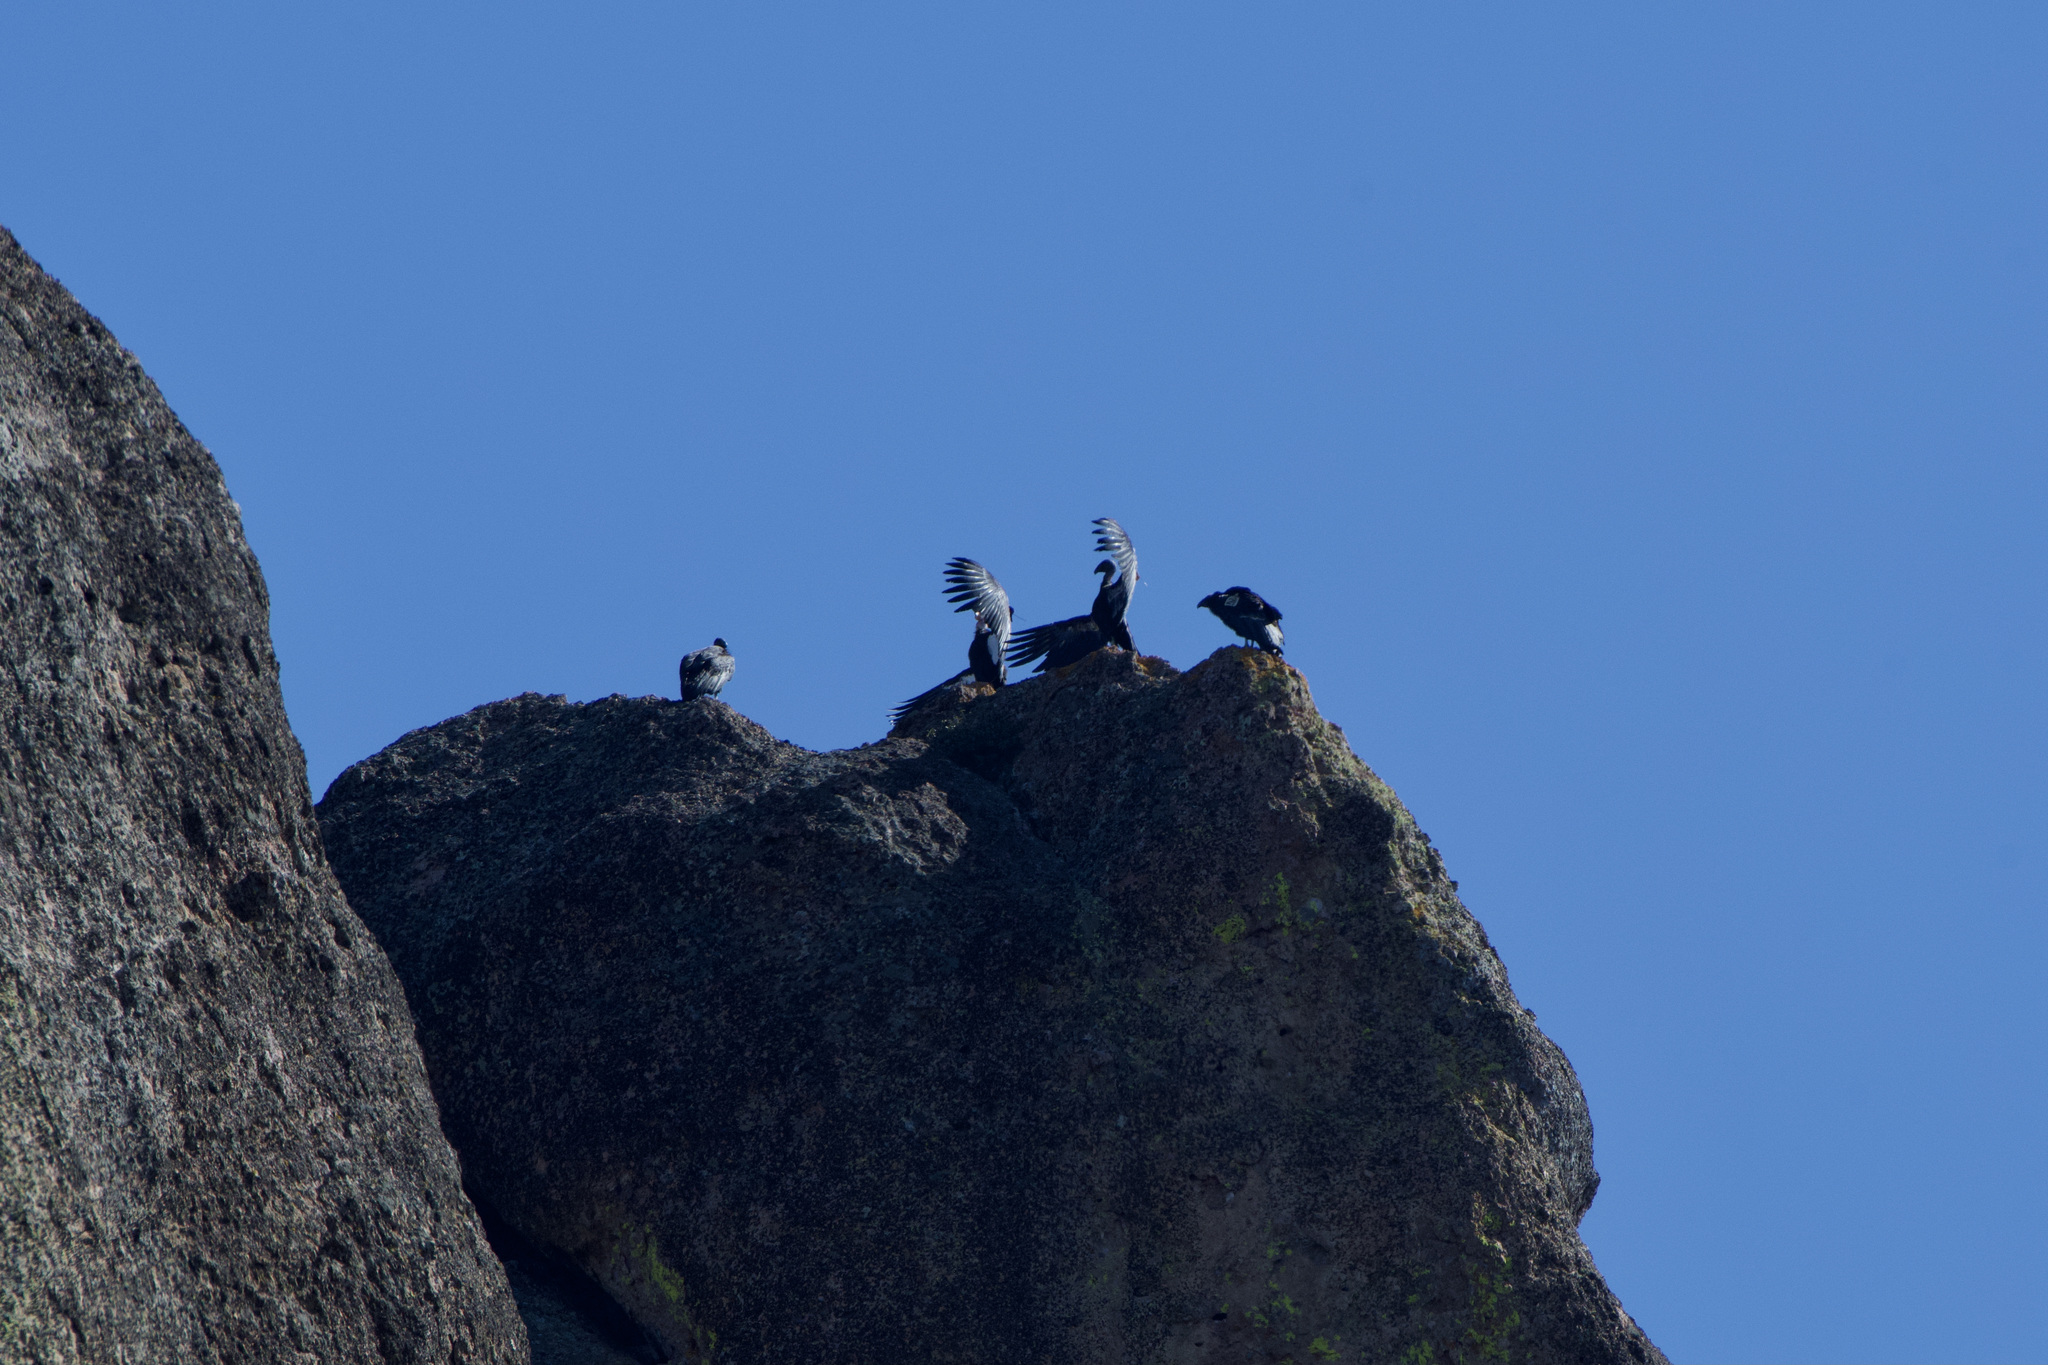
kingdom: Animalia
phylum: Chordata
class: Aves
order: Accipitriformes
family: Cathartidae
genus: Gymnogyps
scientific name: Gymnogyps californianus
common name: California condor
